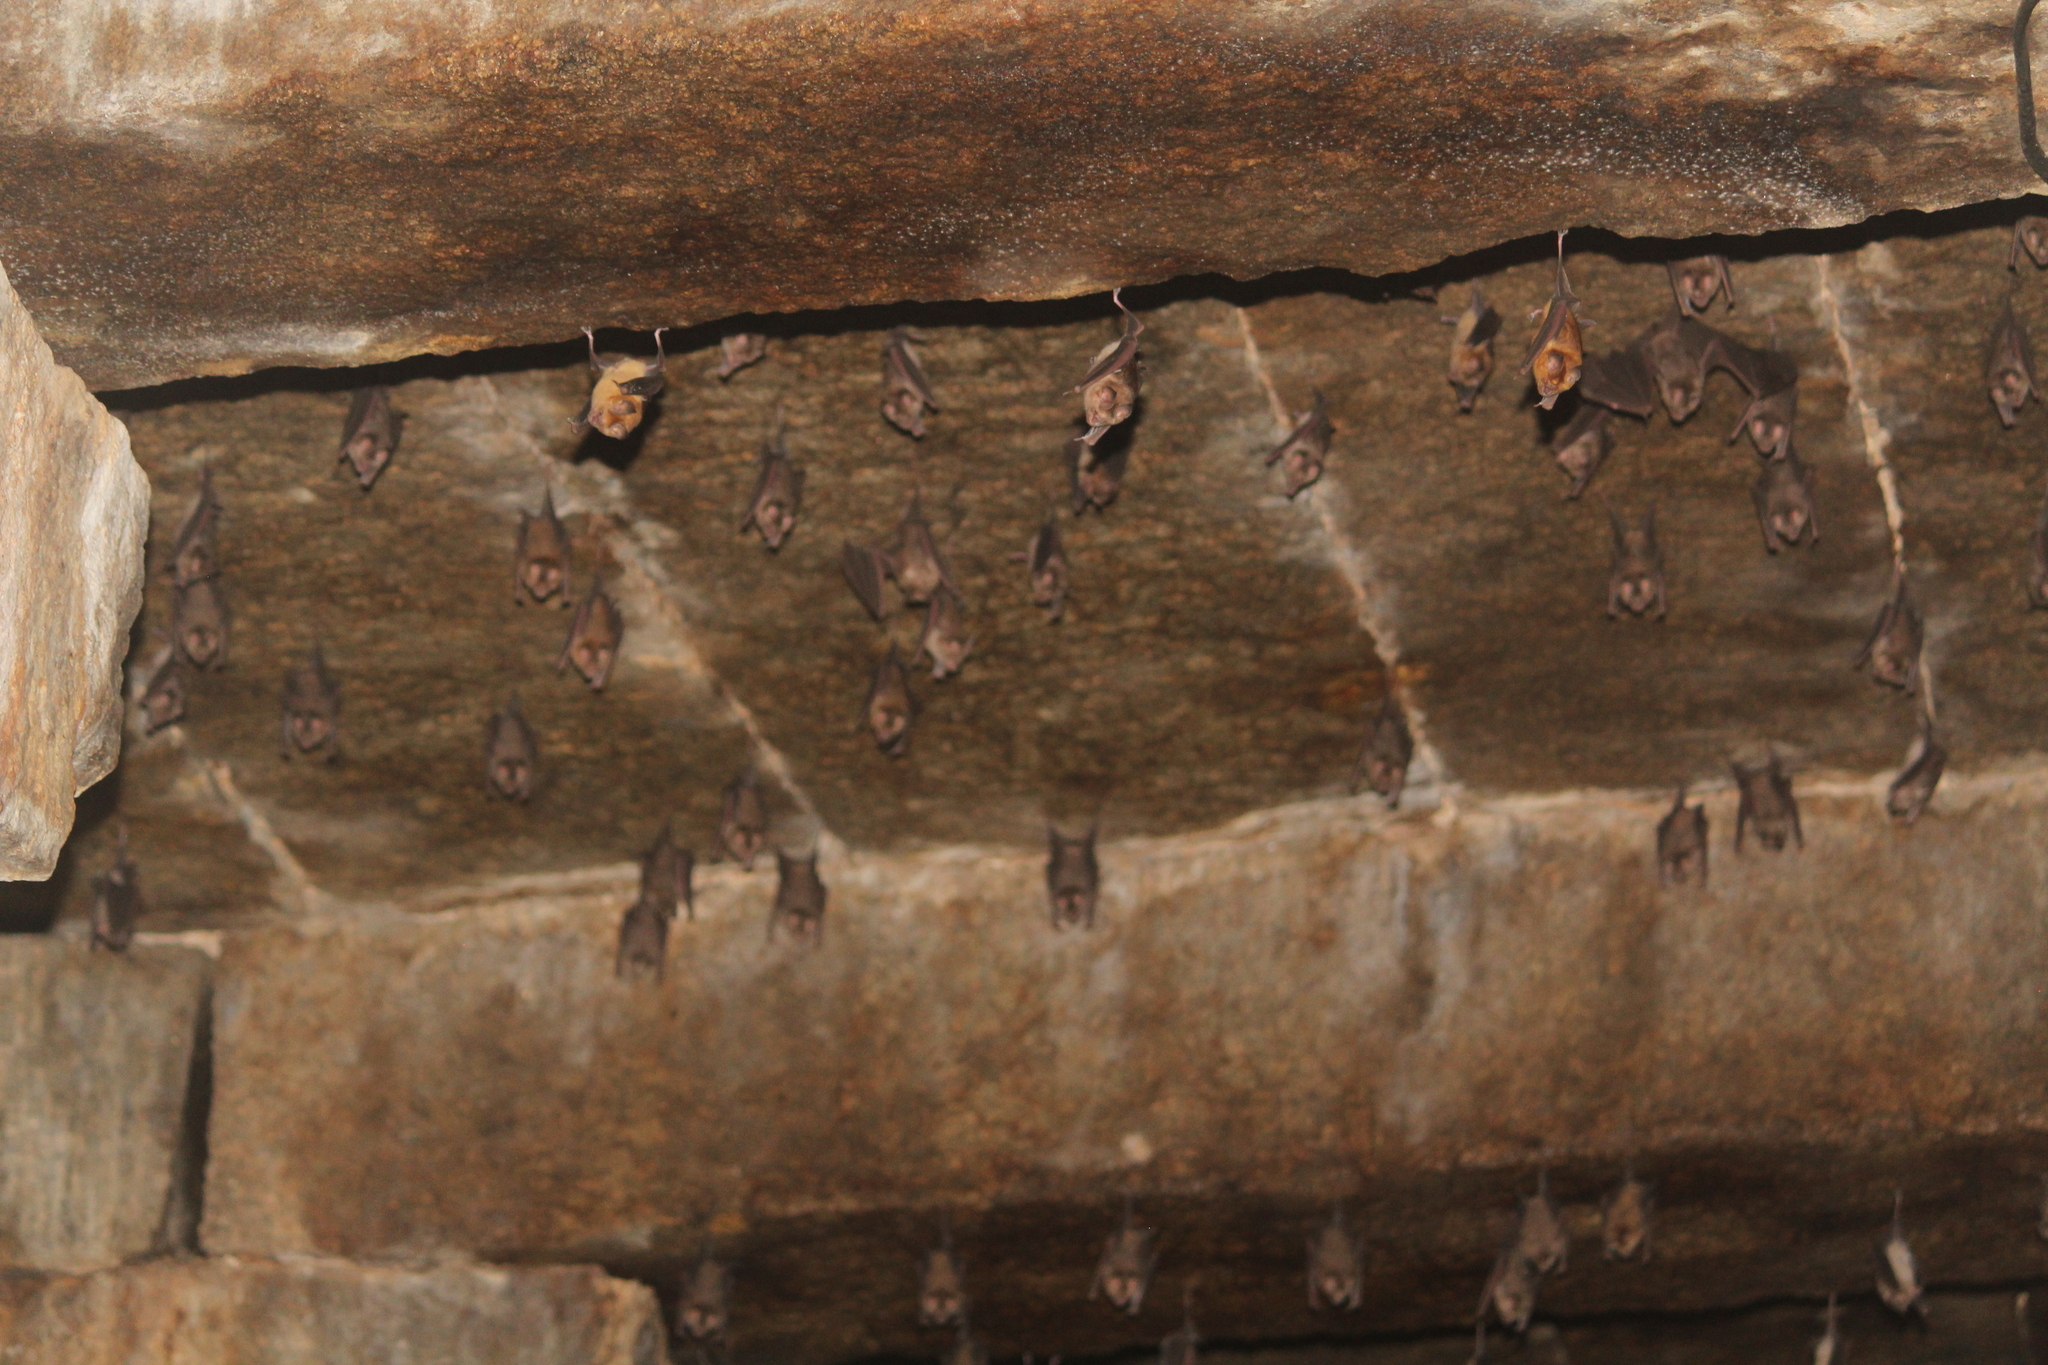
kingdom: Animalia
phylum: Chordata
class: Mammalia
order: Chiroptera
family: Hipposideridae
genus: Hipposideros
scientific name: Hipposideros speoris
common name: Schneider's roundleaf bat
